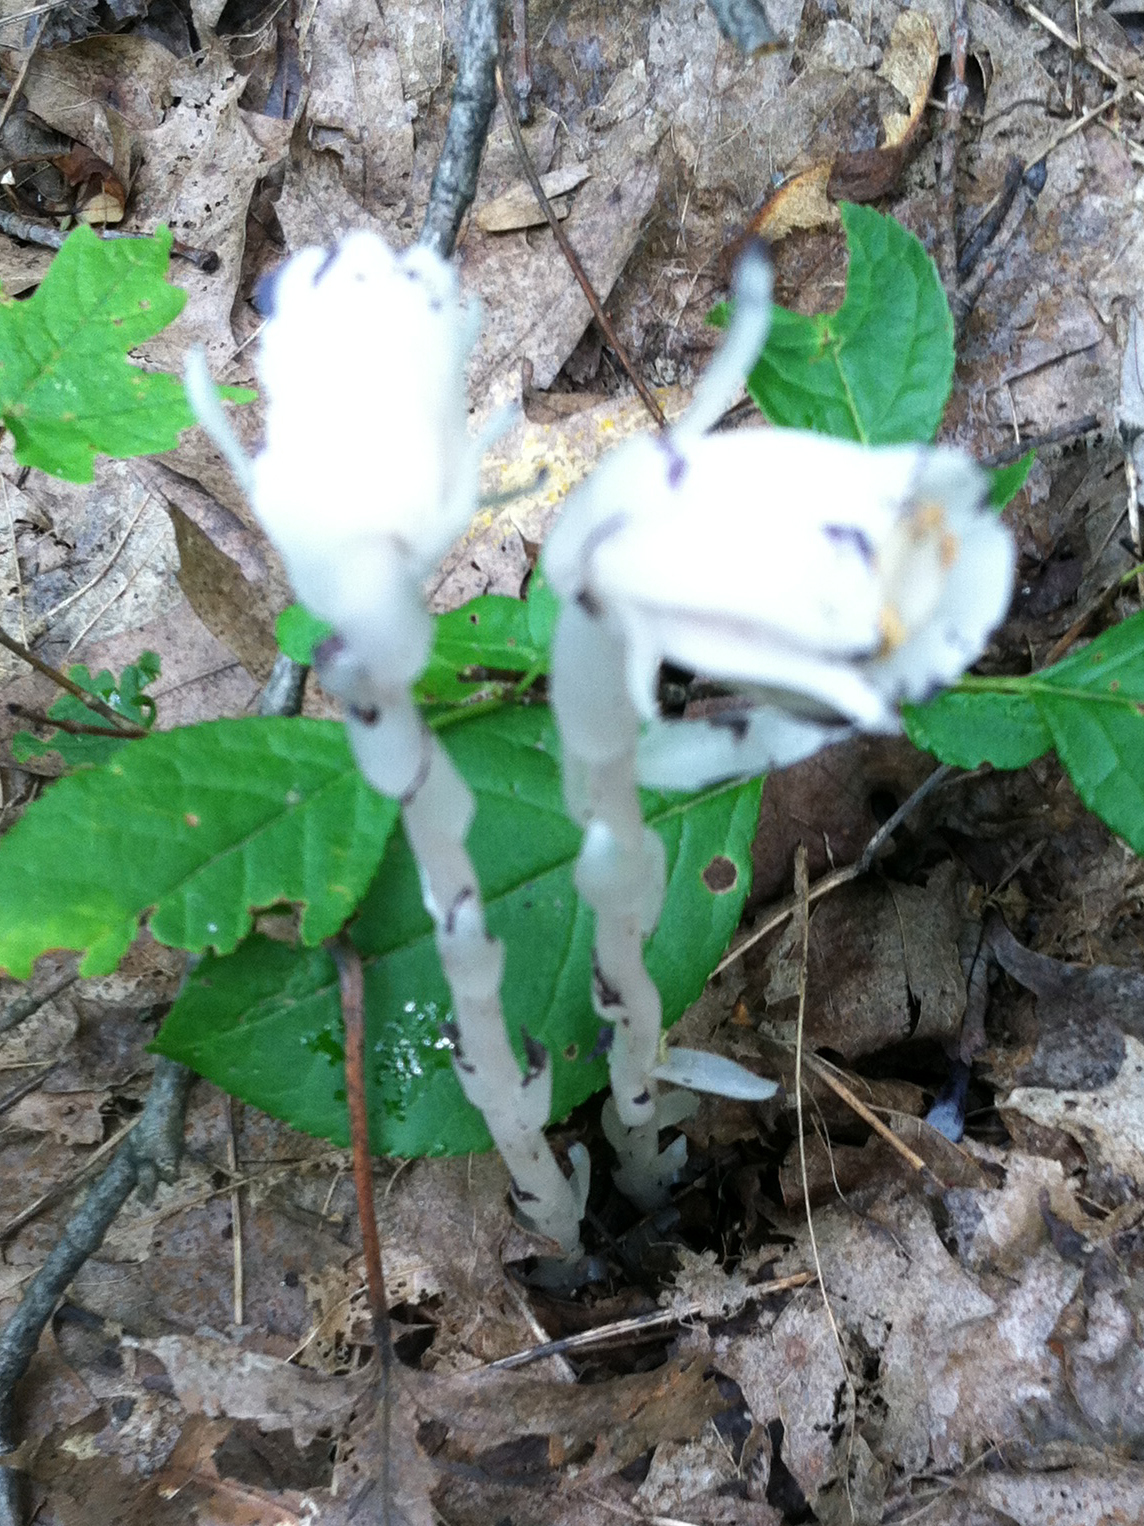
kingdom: Plantae
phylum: Tracheophyta
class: Magnoliopsida
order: Ericales
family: Ericaceae
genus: Monotropa
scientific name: Monotropa uniflora
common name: Convulsion root
